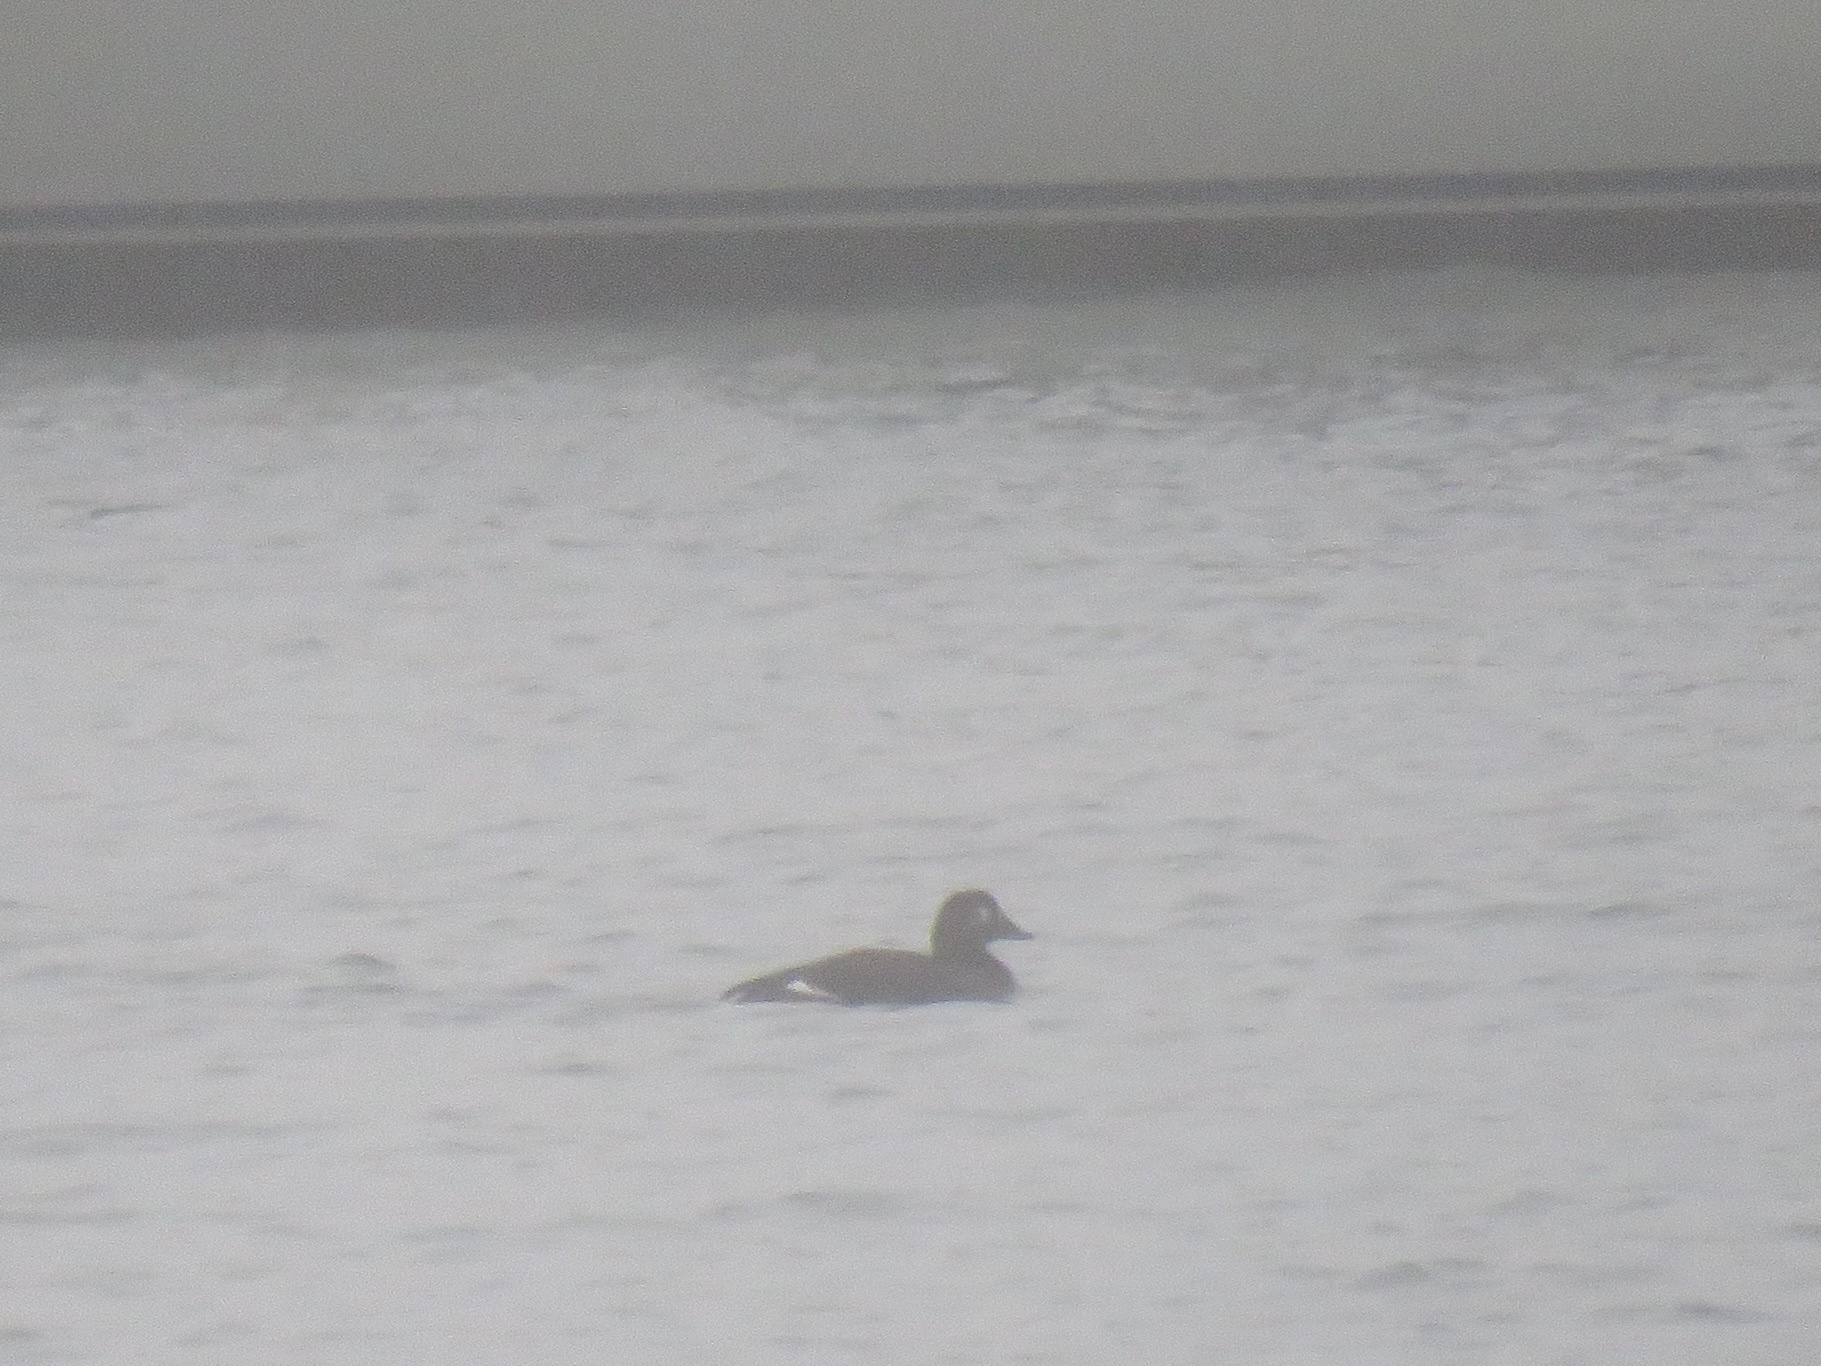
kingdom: Animalia
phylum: Chordata
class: Aves
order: Anseriformes
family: Anatidae
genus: Melanitta
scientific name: Melanitta deglandi
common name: White-winged scoter
